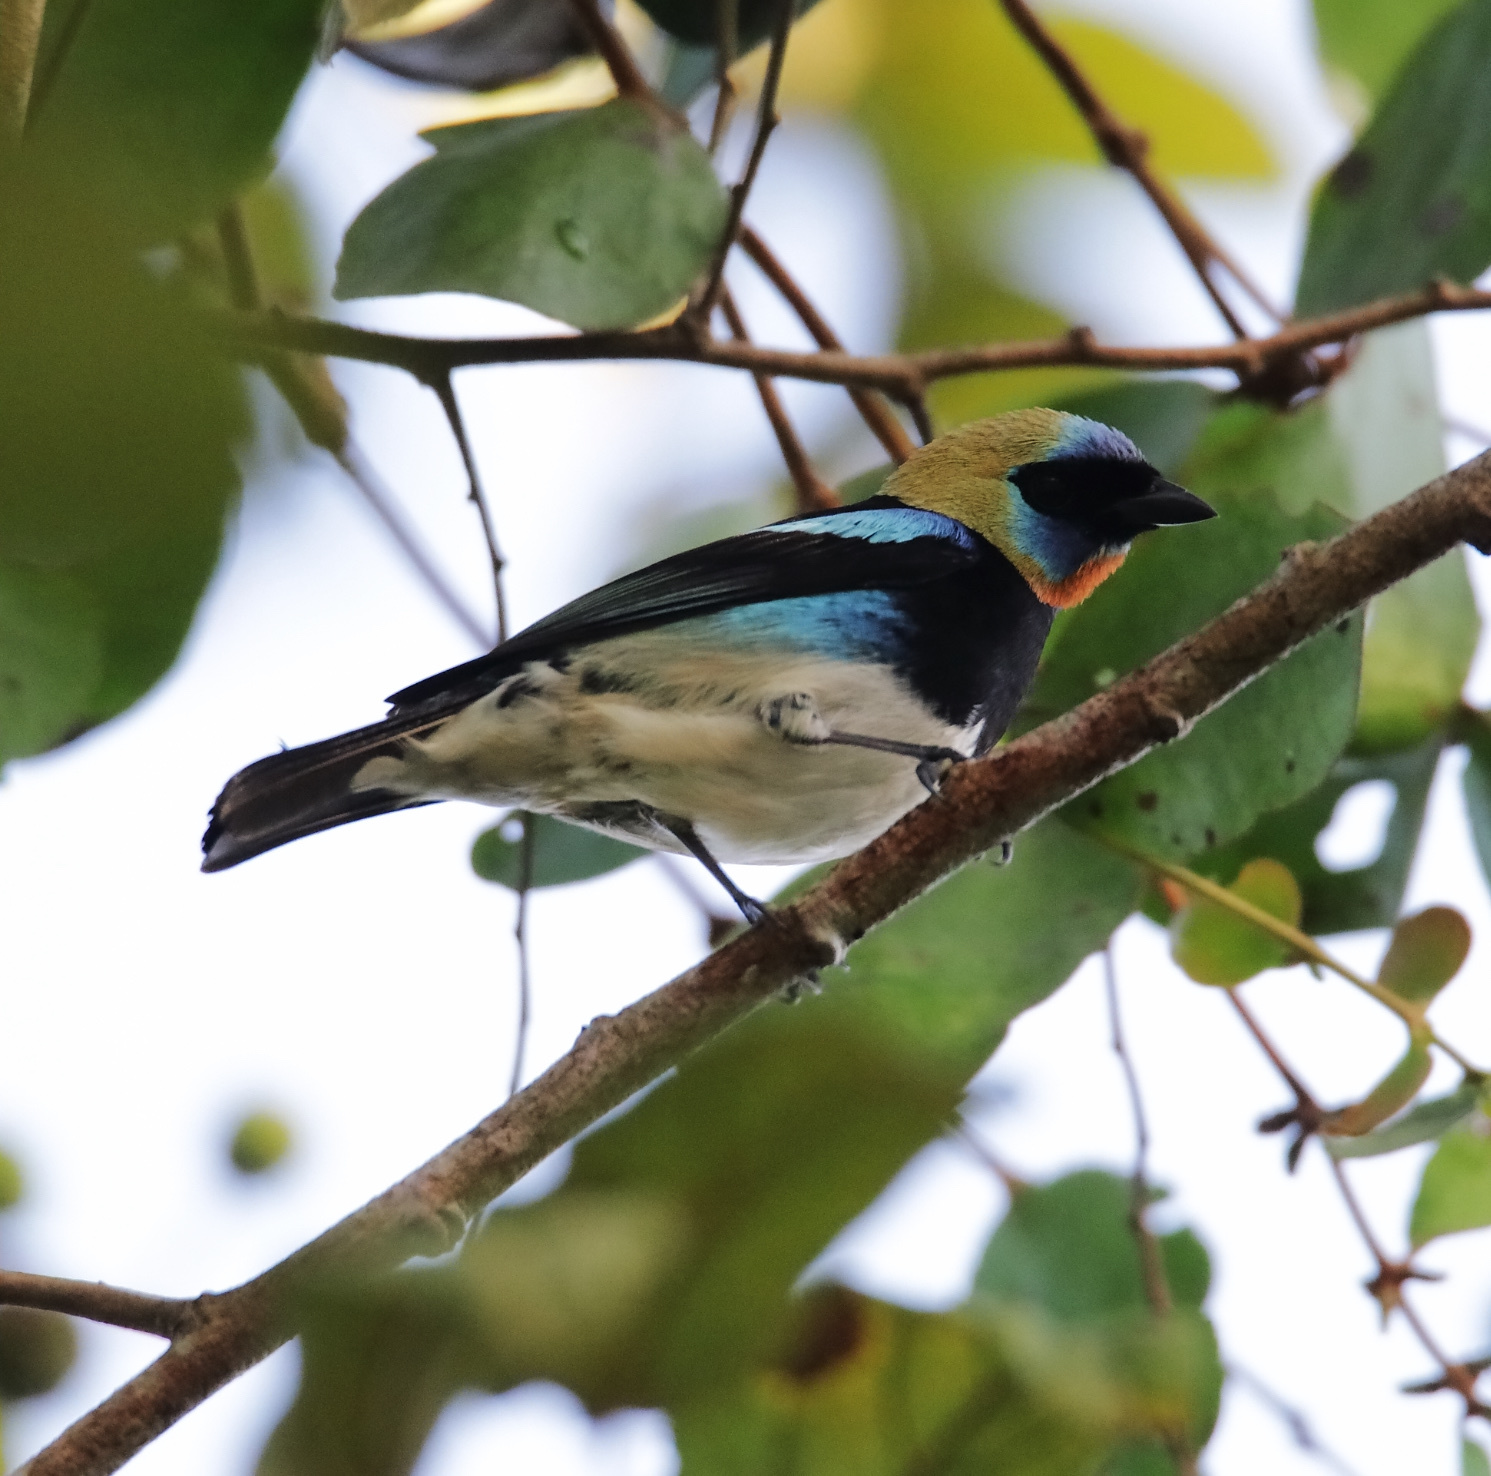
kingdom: Animalia
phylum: Chordata
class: Aves
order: Passeriformes
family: Thraupidae
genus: Stilpnia
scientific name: Stilpnia larvata
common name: Golden-hooded tanager
